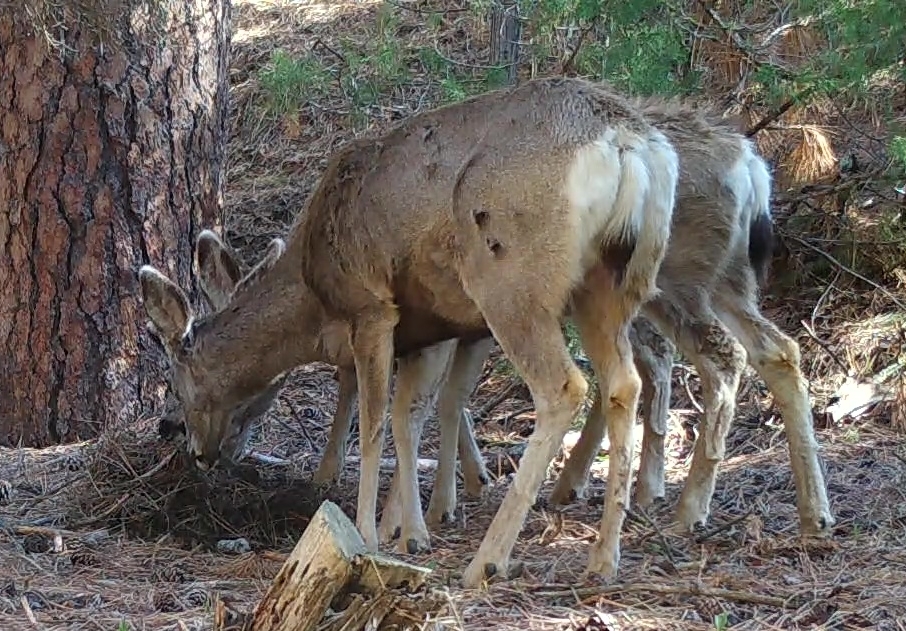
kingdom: Animalia
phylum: Chordata
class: Mammalia
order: Artiodactyla
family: Cervidae
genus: Odocoileus
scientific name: Odocoileus hemionus
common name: Mule deer
